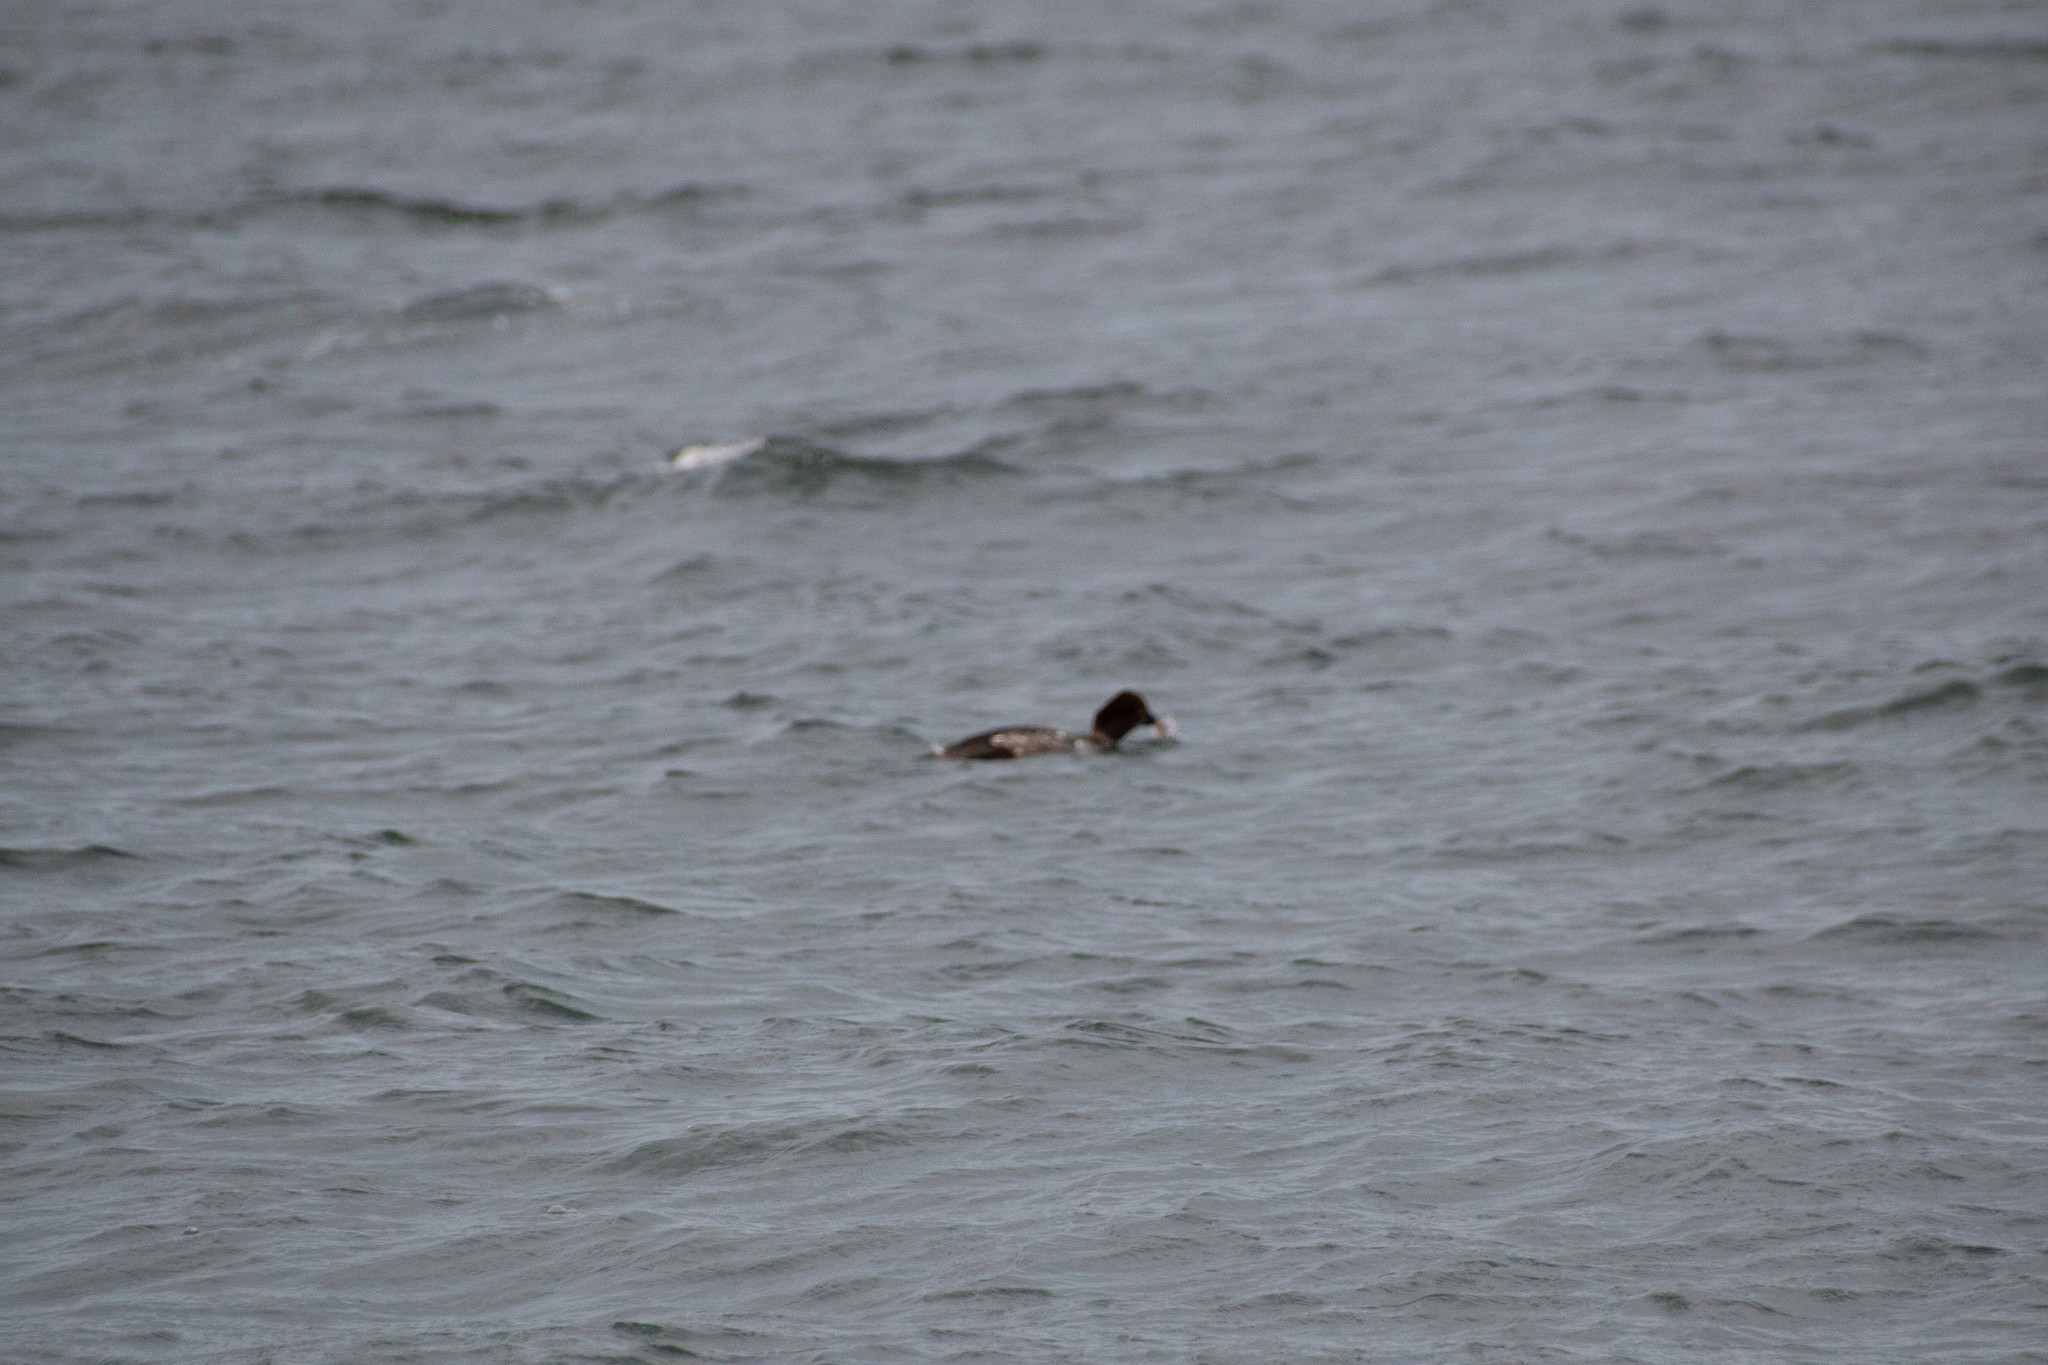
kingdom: Animalia
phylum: Chordata
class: Aves
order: Anseriformes
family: Anatidae
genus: Bucephala
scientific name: Bucephala clangula
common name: Common goldeneye
